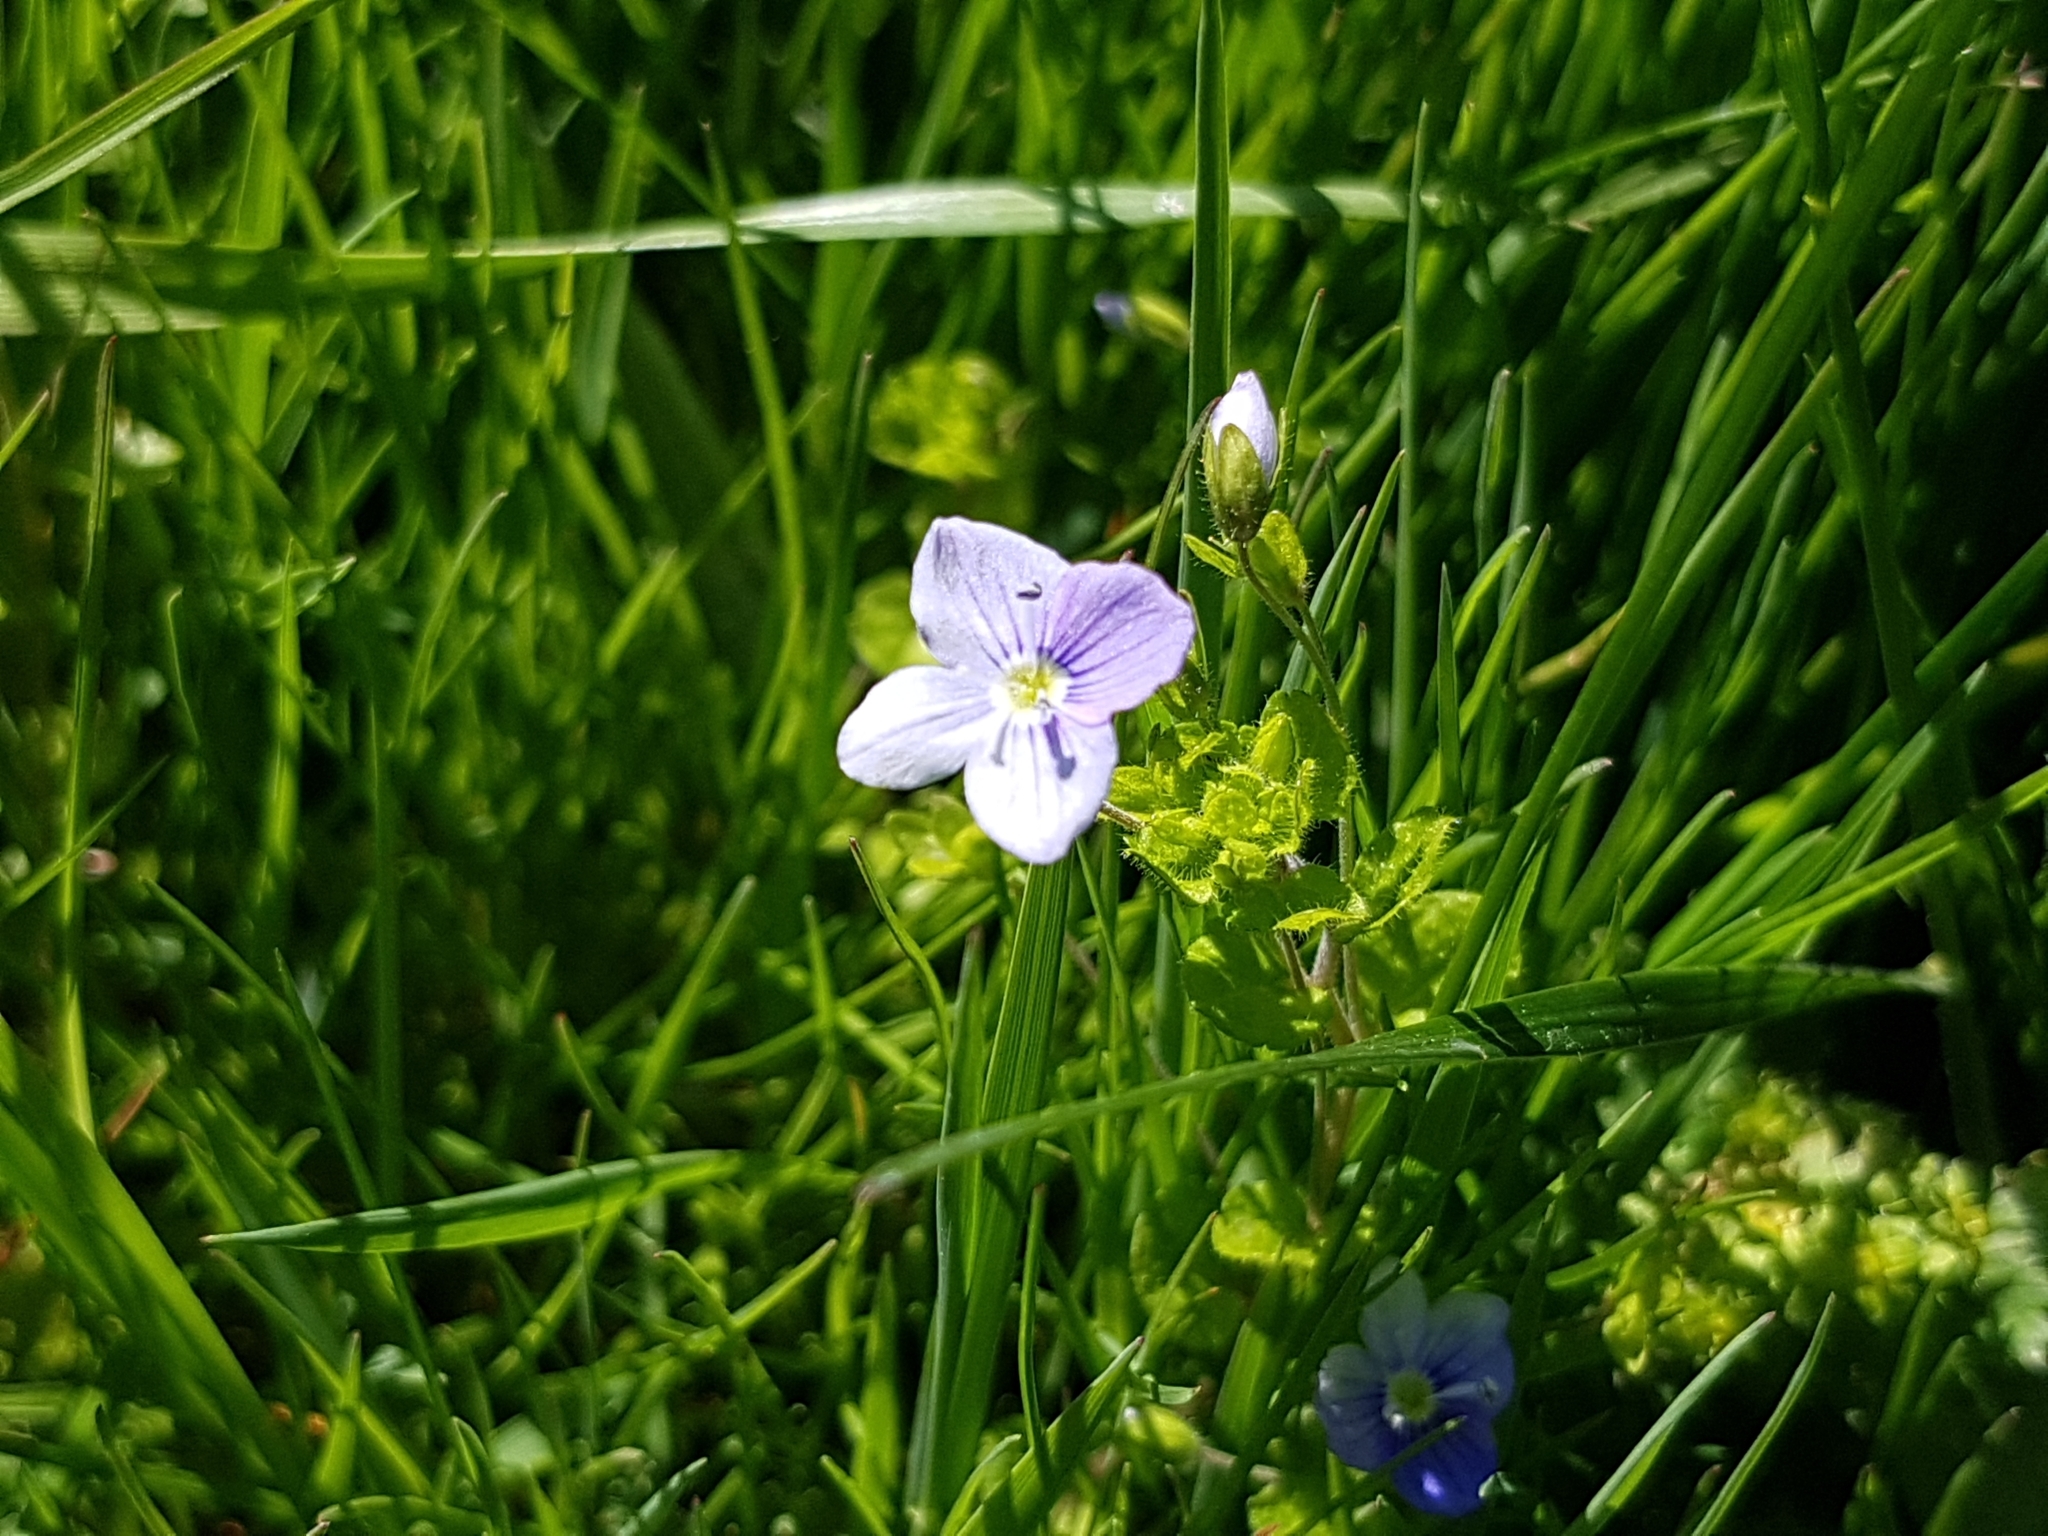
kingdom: Plantae
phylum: Tracheophyta
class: Magnoliopsida
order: Lamiales
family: Plantaginaceae
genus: Veronica
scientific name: Veronica filiformis
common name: Slender speedwell
